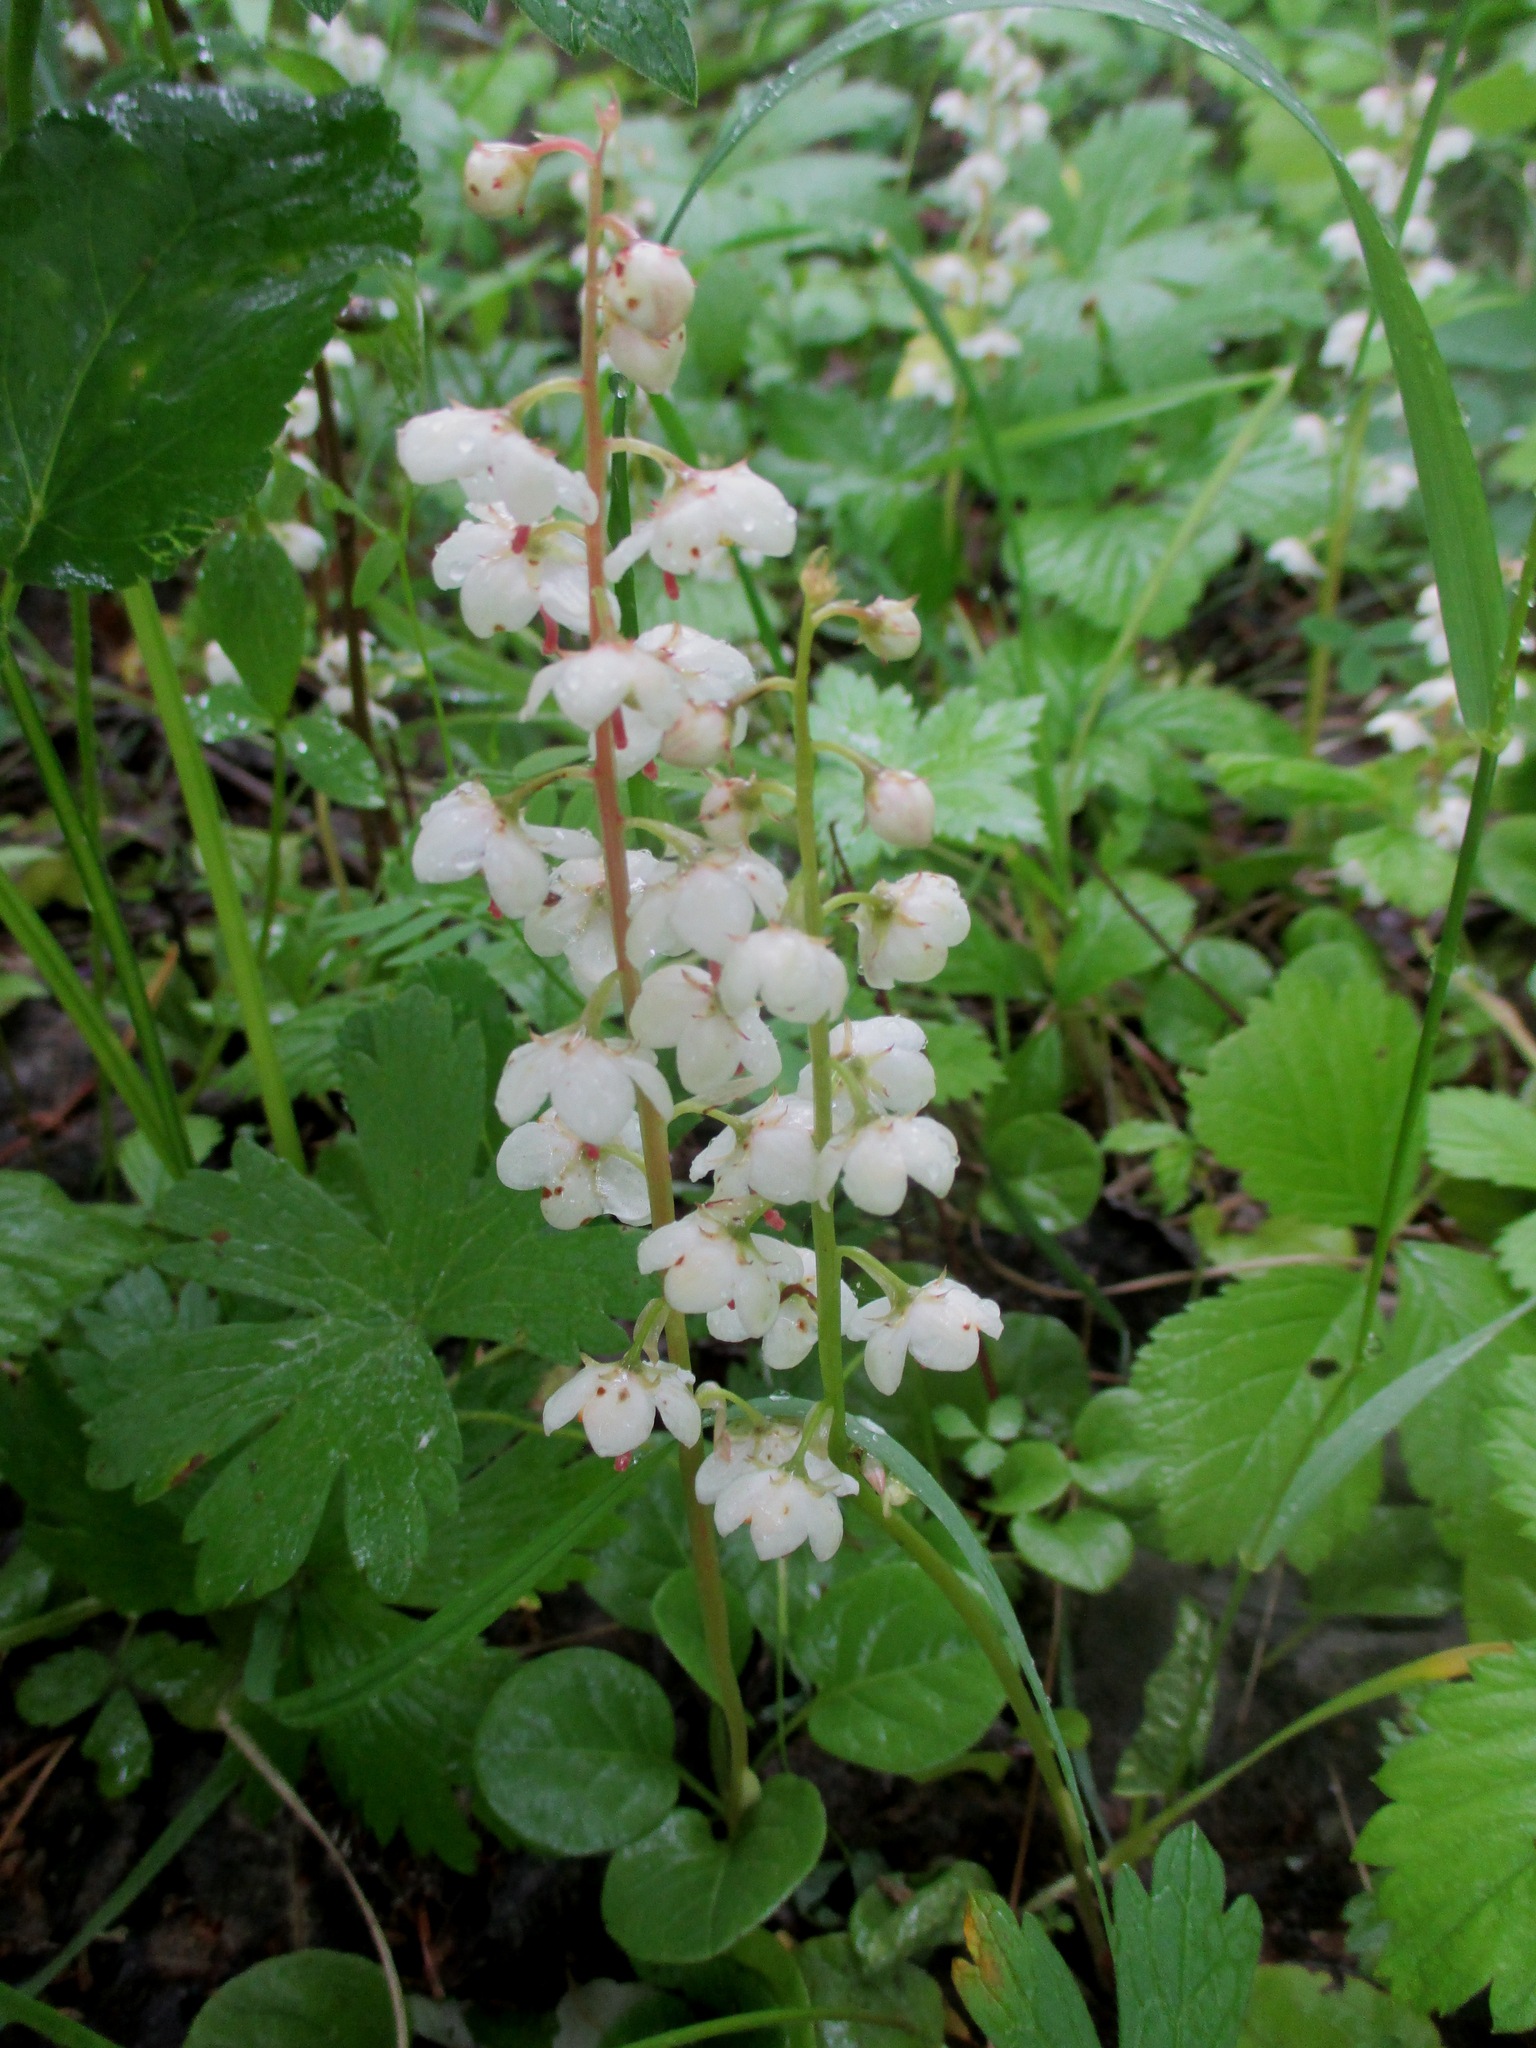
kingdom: Plantae
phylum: Tracheophyta
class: Magnoliopsida
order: Ericales
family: Ericaceae
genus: Pyrola
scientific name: Pyrola rotundifolia
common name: Round-leaved wintergreen
